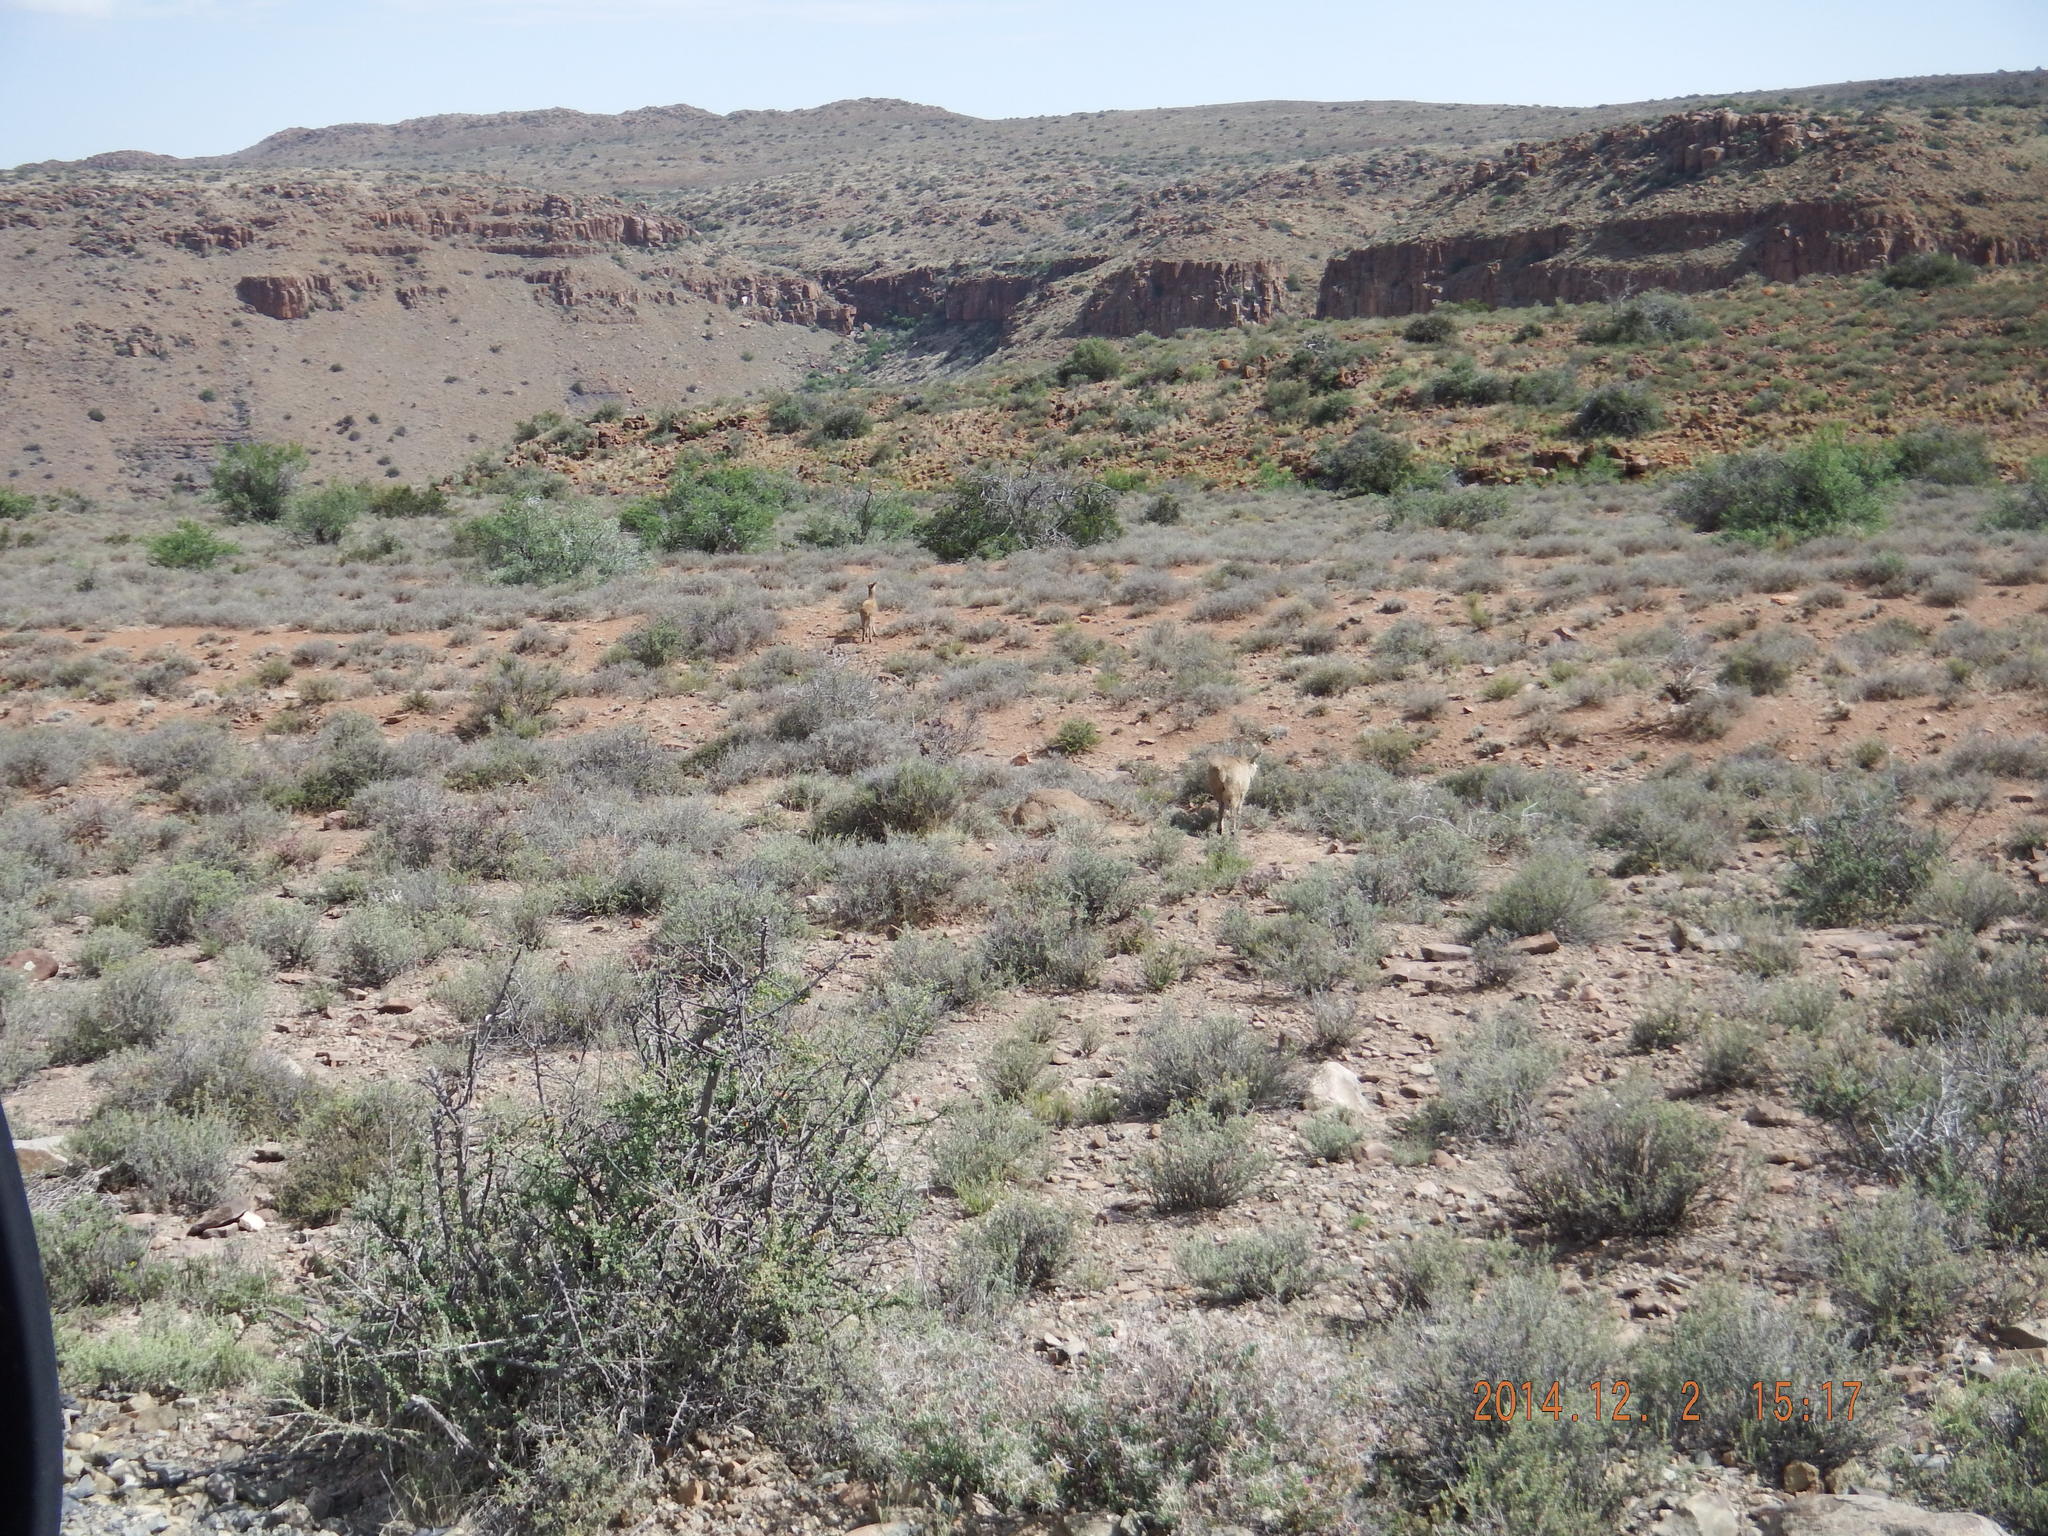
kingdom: Animalia
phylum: Chordata
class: Mammalia
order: Artiodactyla
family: Bovidae
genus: Oreotragus
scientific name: Oreotragus oreotragus
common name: Klipspringer
